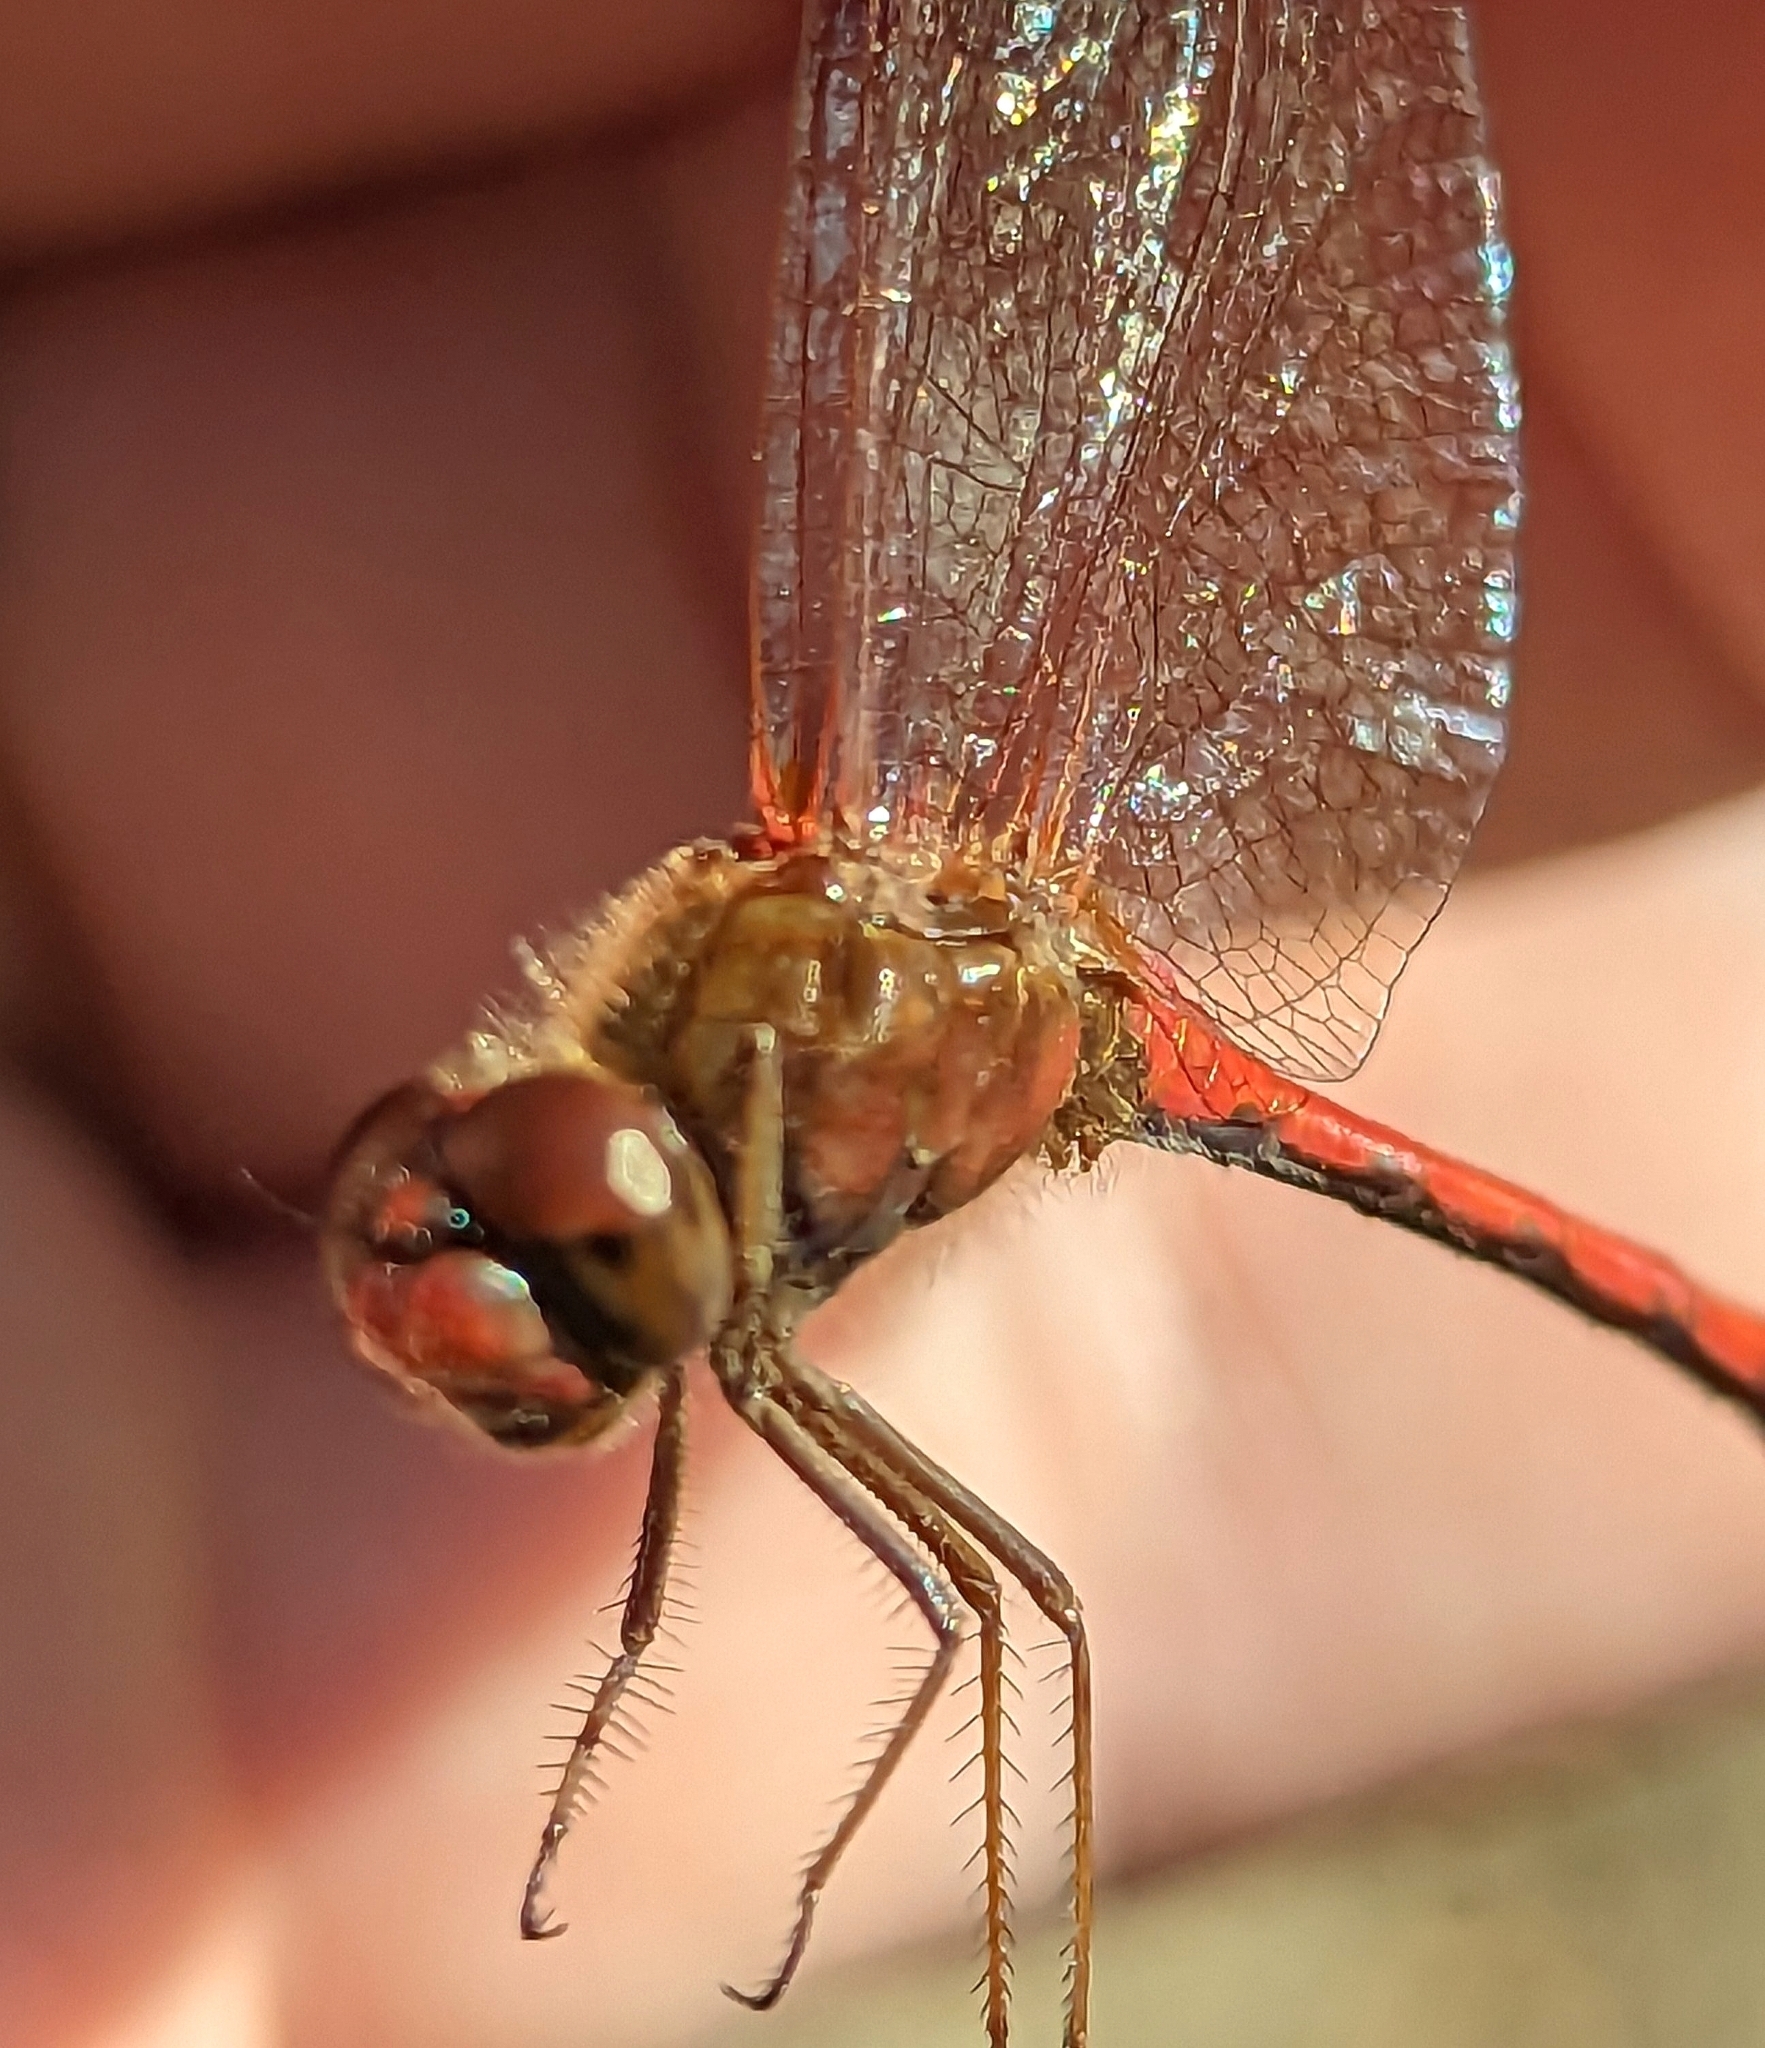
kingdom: Animalia
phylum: Arthropoda
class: Insecta
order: Odonata
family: Libellulidae
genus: Sympetrum
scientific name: Sympetrum vicinum
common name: Autumn meadowhawk
